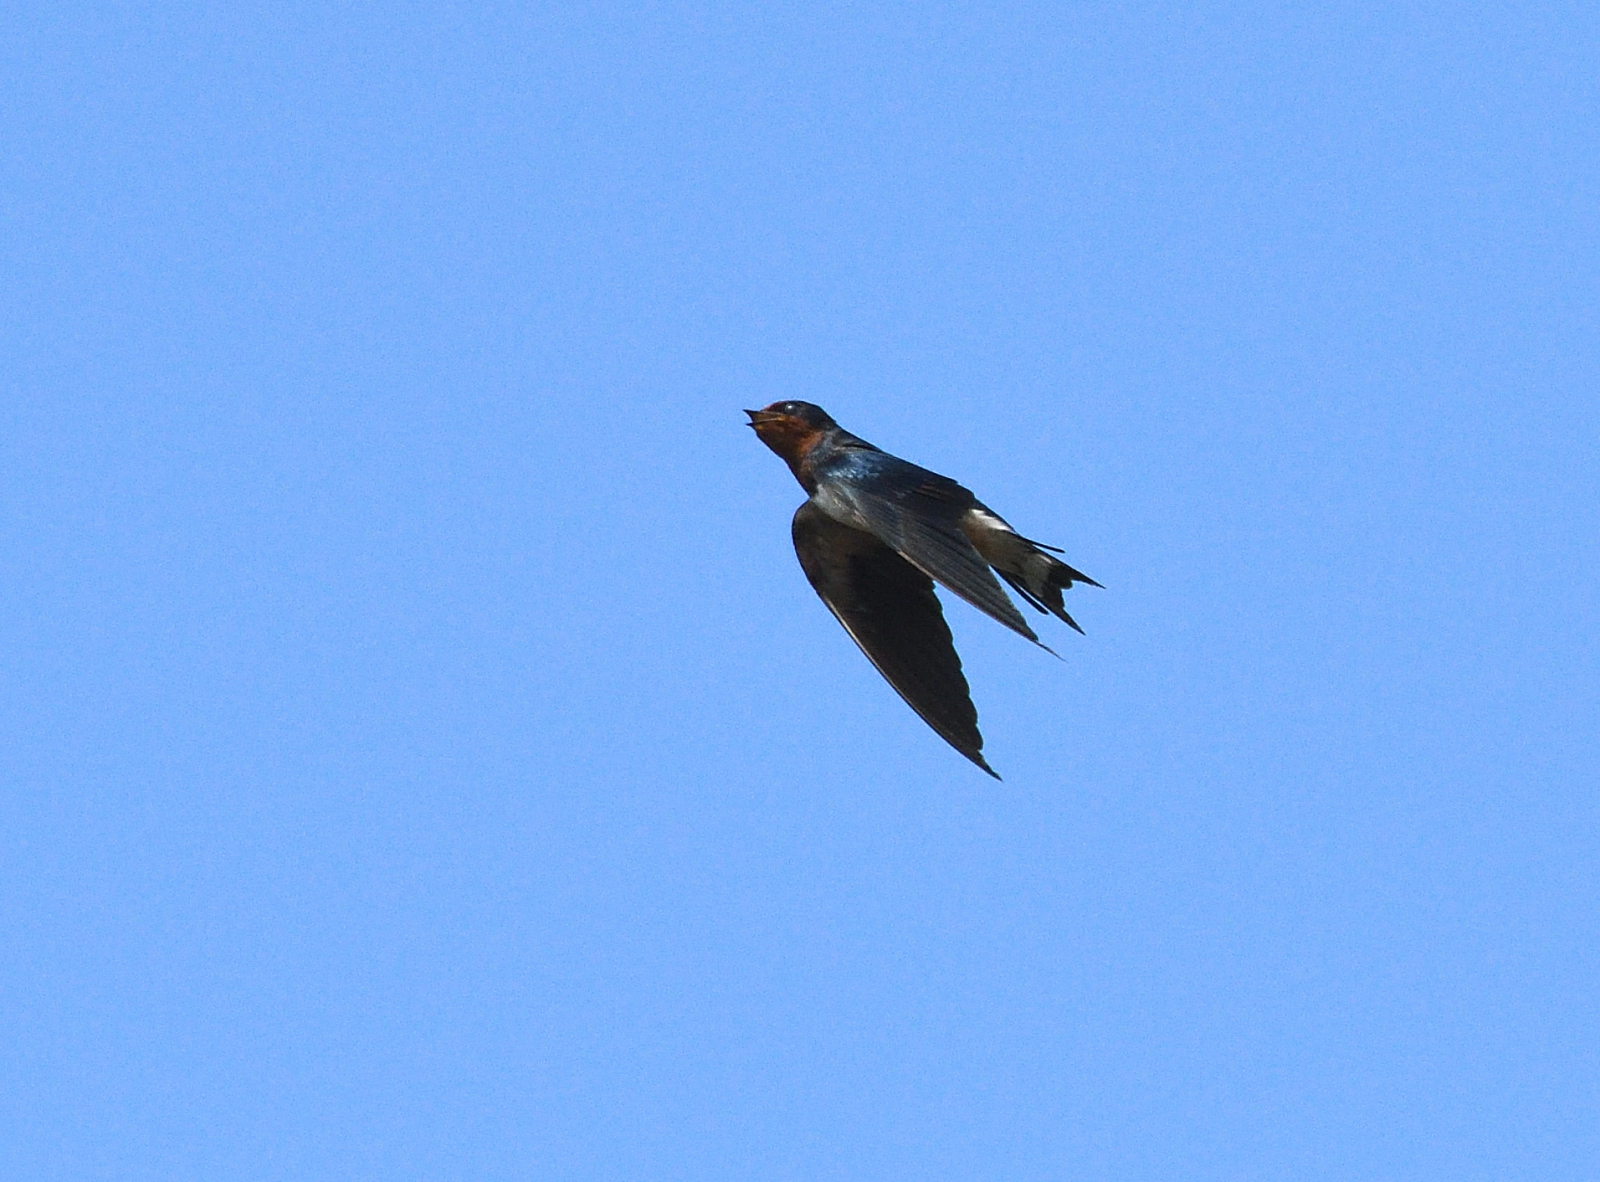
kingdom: Animalia
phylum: Chordata
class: Aves
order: Passeriformes
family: Hirundinidae
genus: Hirundo
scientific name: Hirundo rustica
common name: Barn swallow
